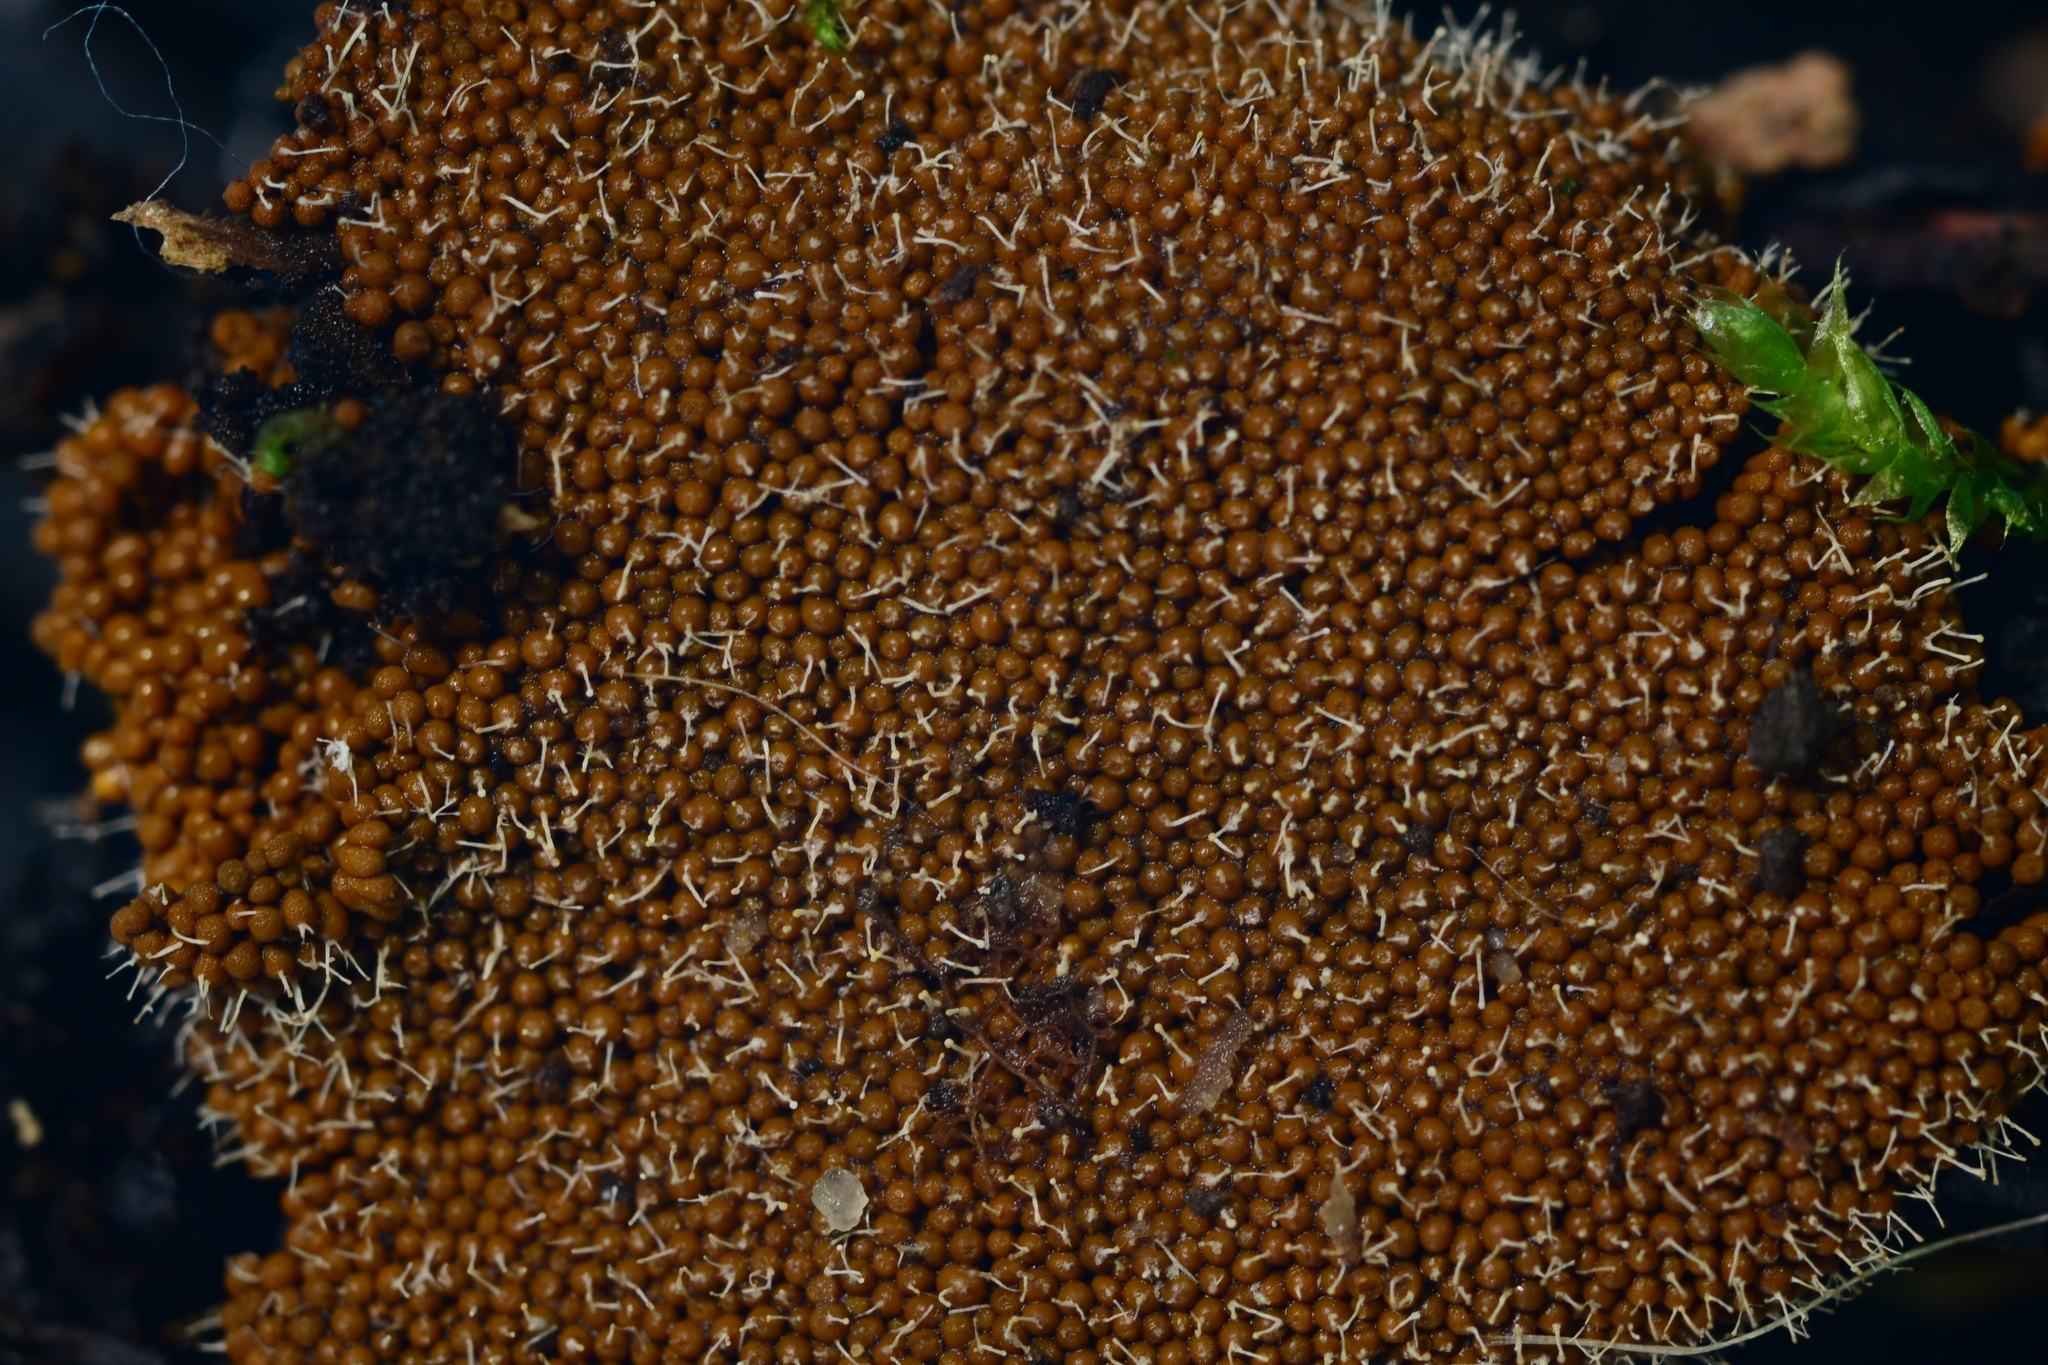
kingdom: Fungi
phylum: Ascomycota
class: Sordariomycetes
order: Hypocreales
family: Ophiocordycipitaceae
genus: Polycephalomyces
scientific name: Polycephalomyces tomentosus
